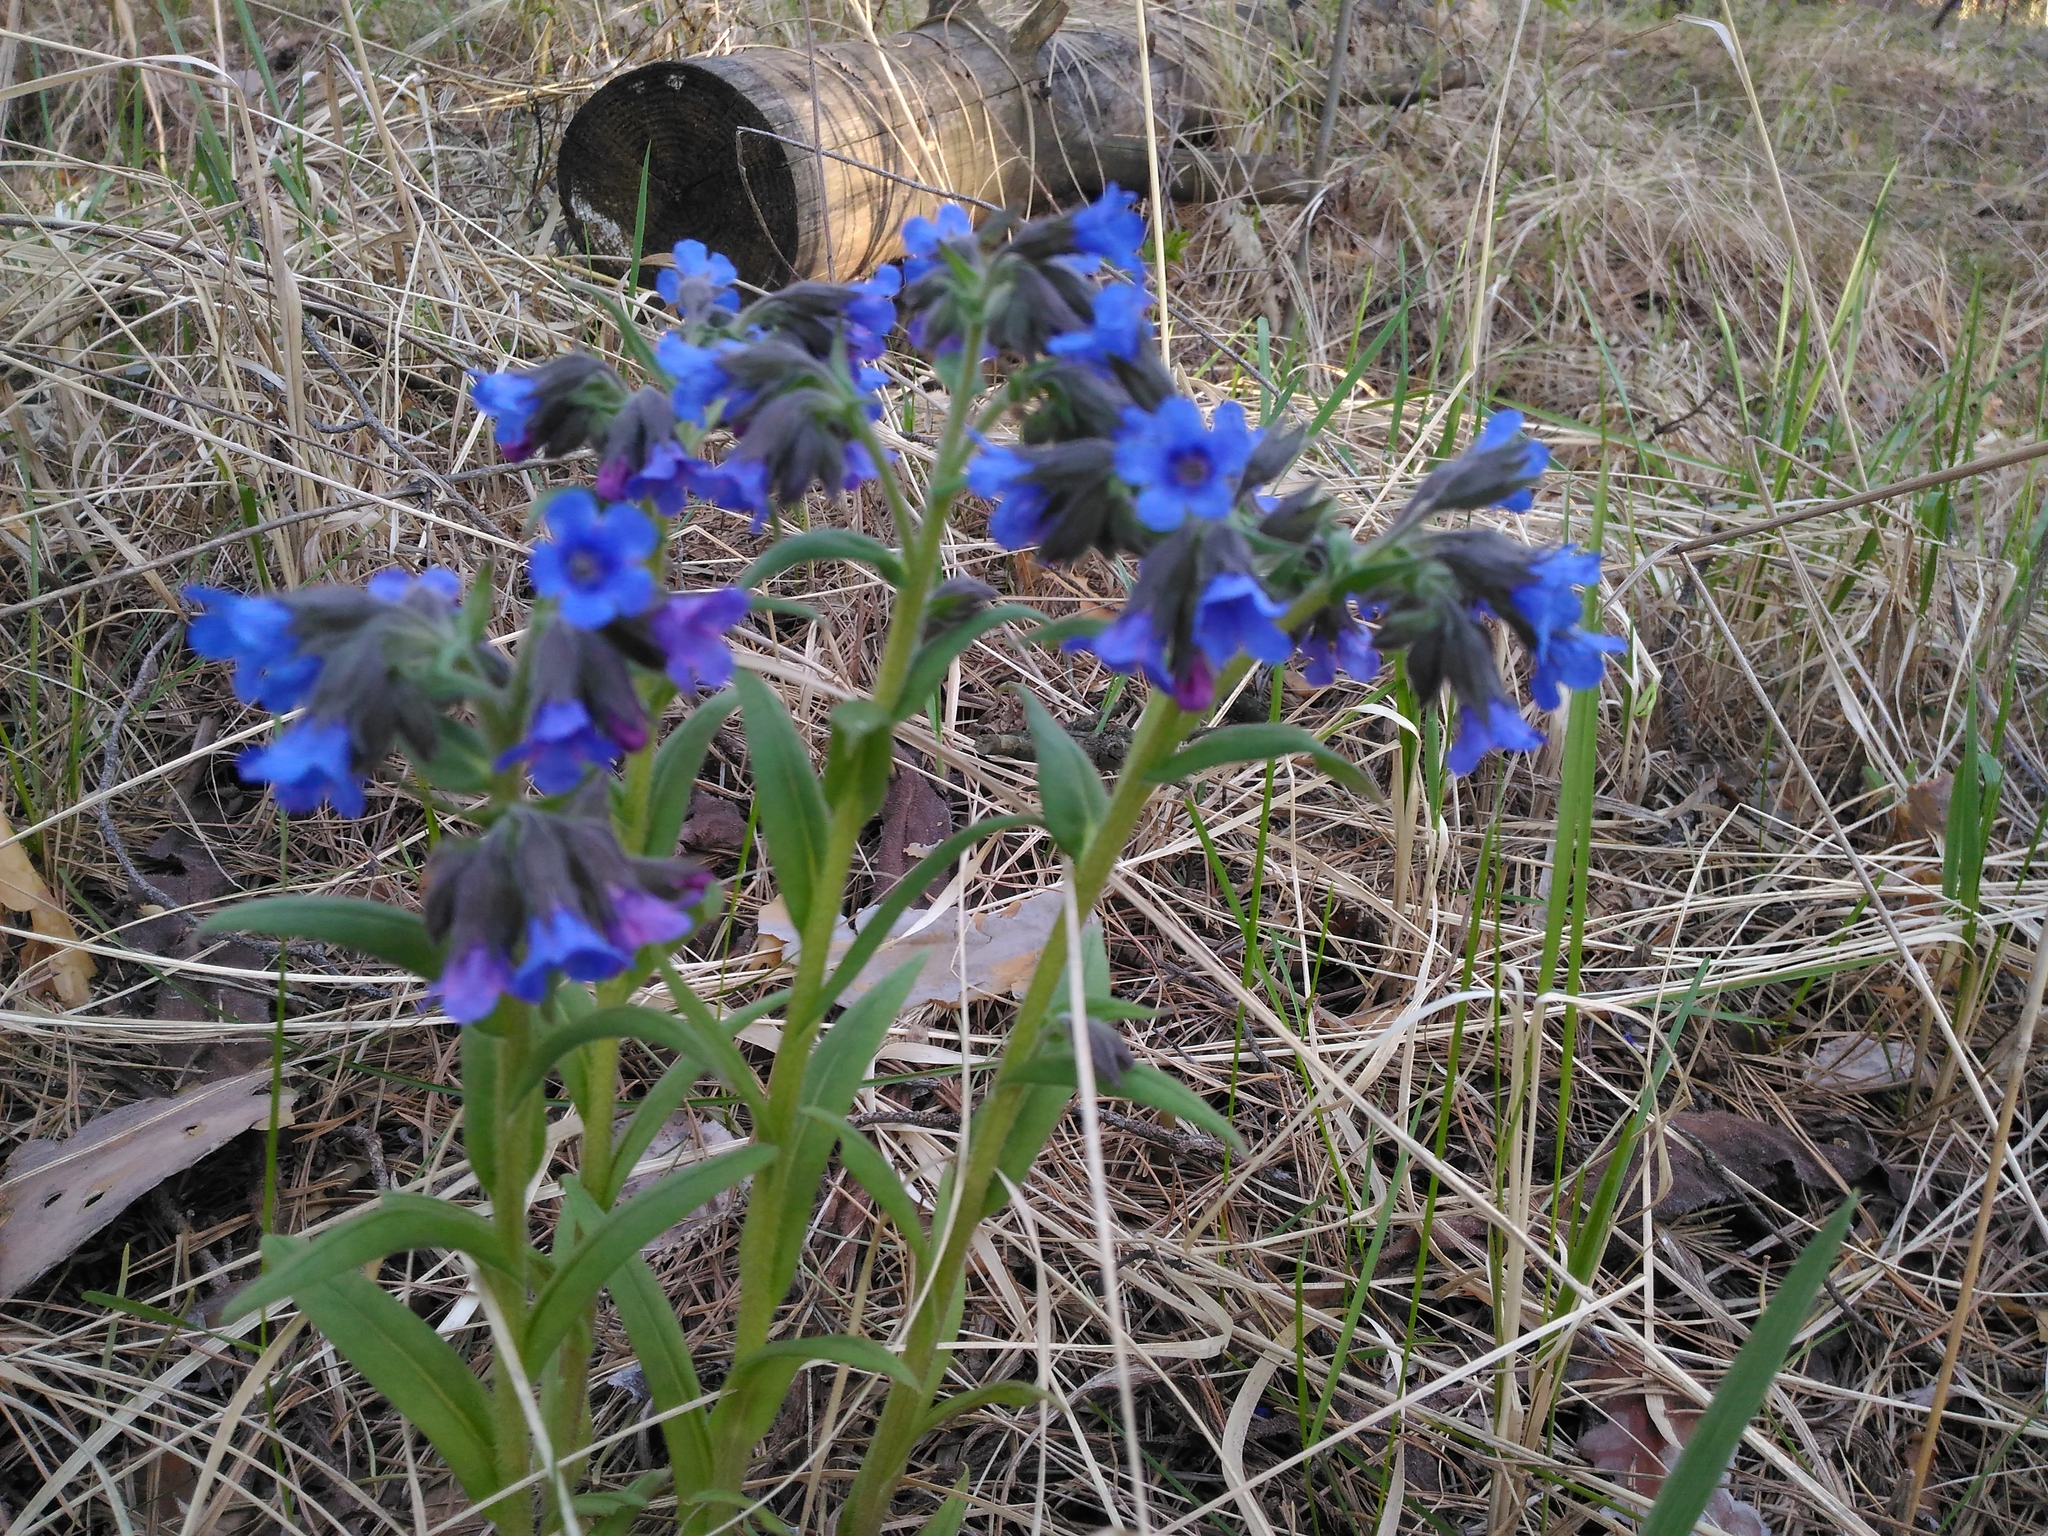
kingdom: Plantae
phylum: Tracheophyta
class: Magnoliopsida
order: Boraginales
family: Boraginaceae
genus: Pulmonaria
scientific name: Pulmonaria angustifolia
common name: Blue cowslip
